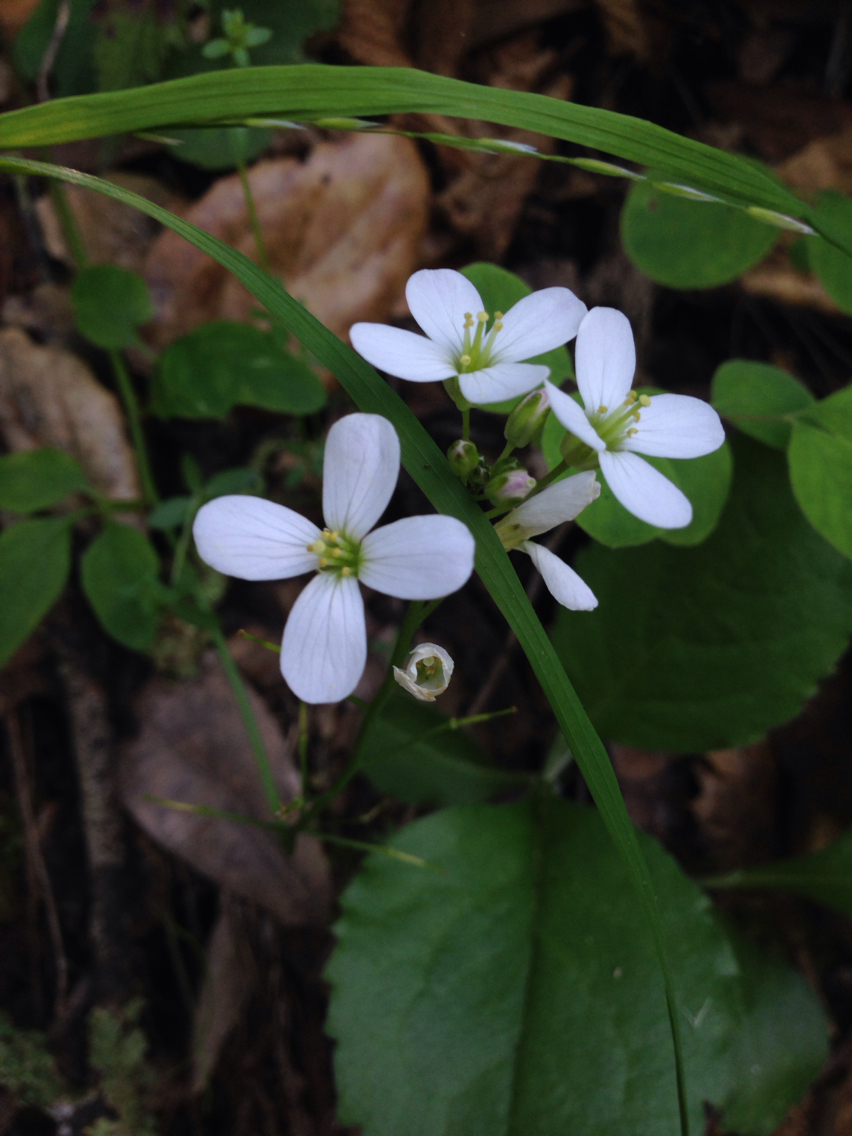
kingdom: Plantae
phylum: Tracheophyta
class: Magnoliopsida
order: Brassicales
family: Brassicaceae
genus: Cardamine
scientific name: Cardamine californica
